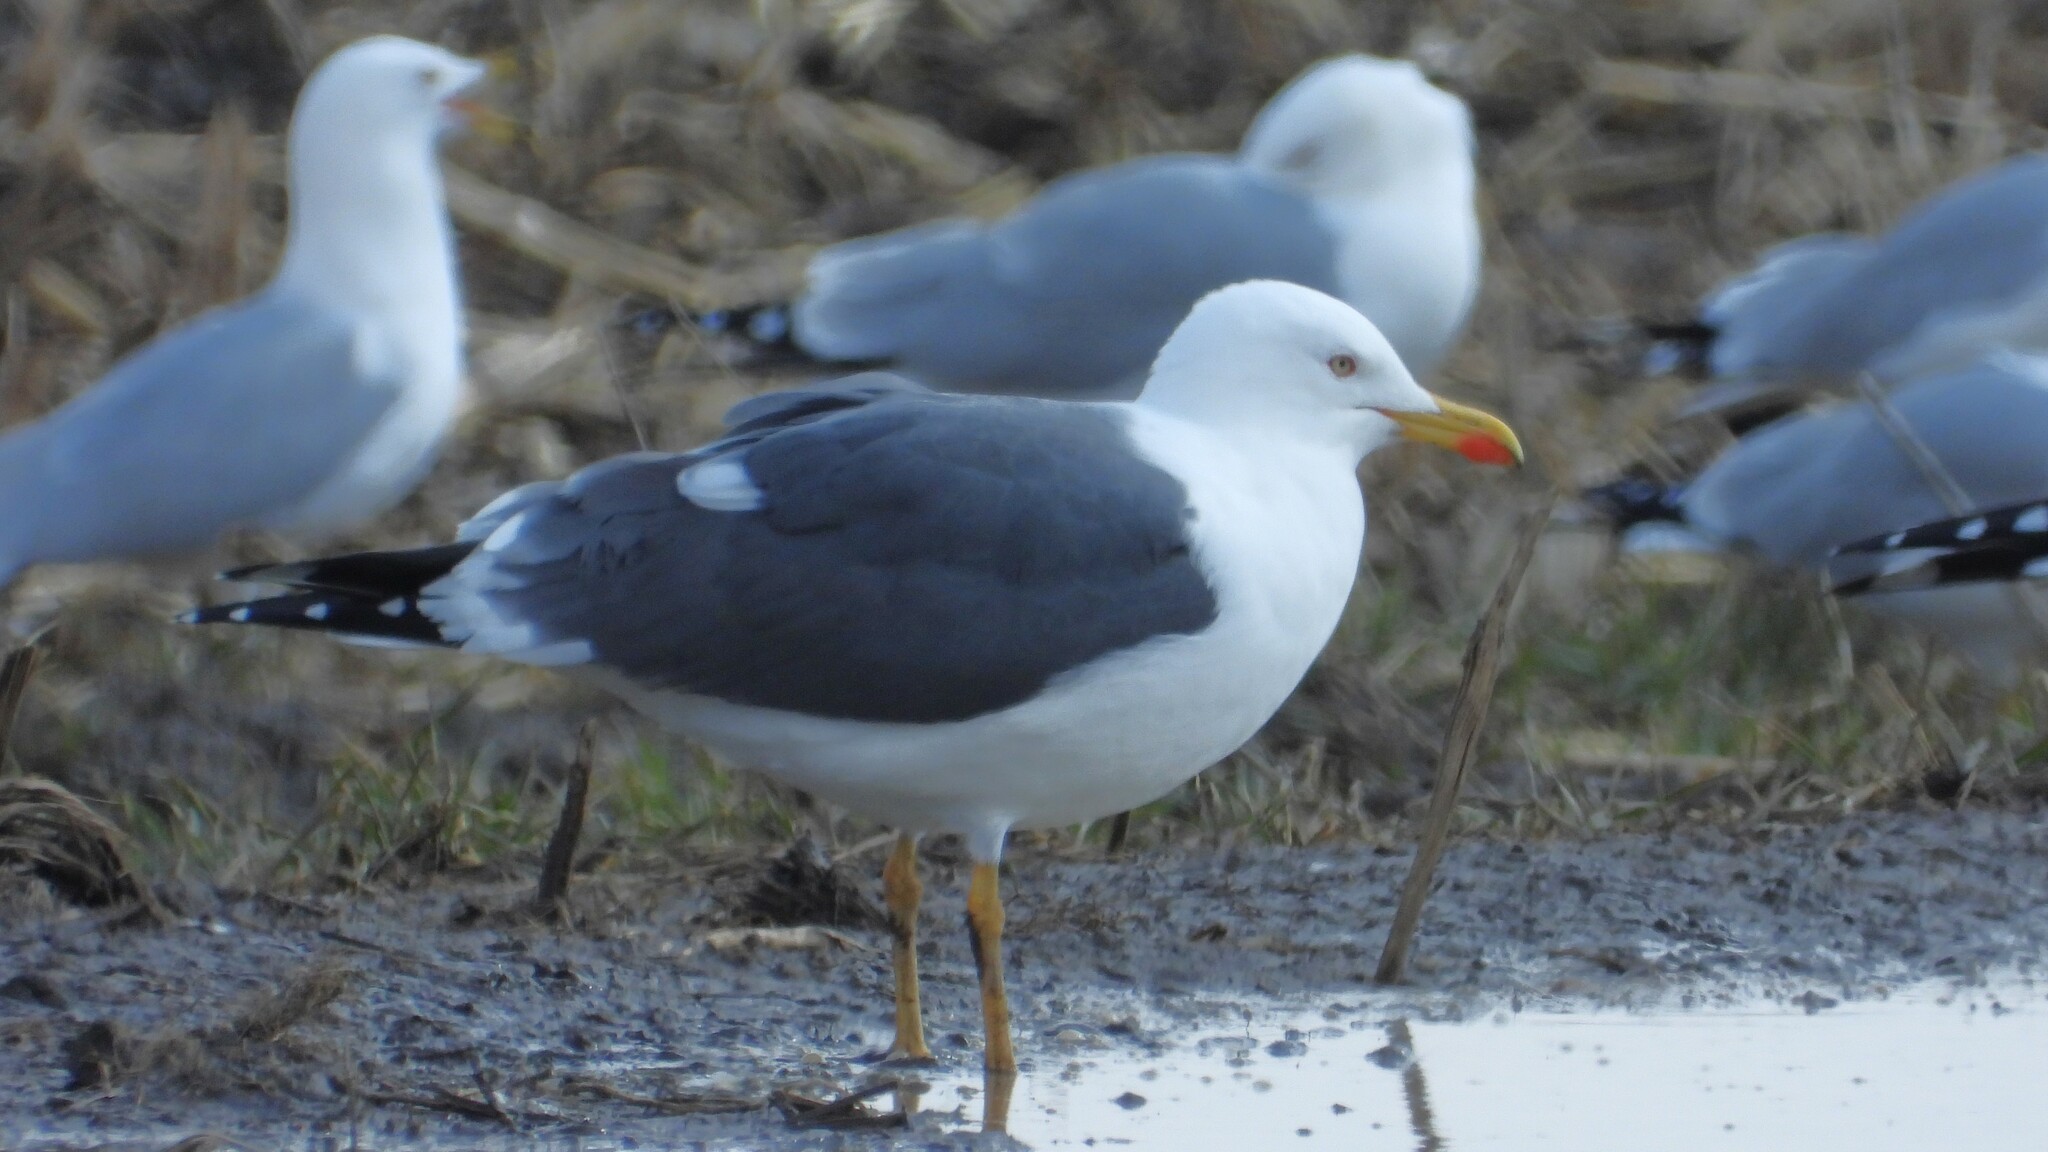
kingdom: Animalia
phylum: Chordata
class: Aves
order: Charadriiformes
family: Laridae
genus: Larus
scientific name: Larus fuscus
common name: Lesser black-backed gull
